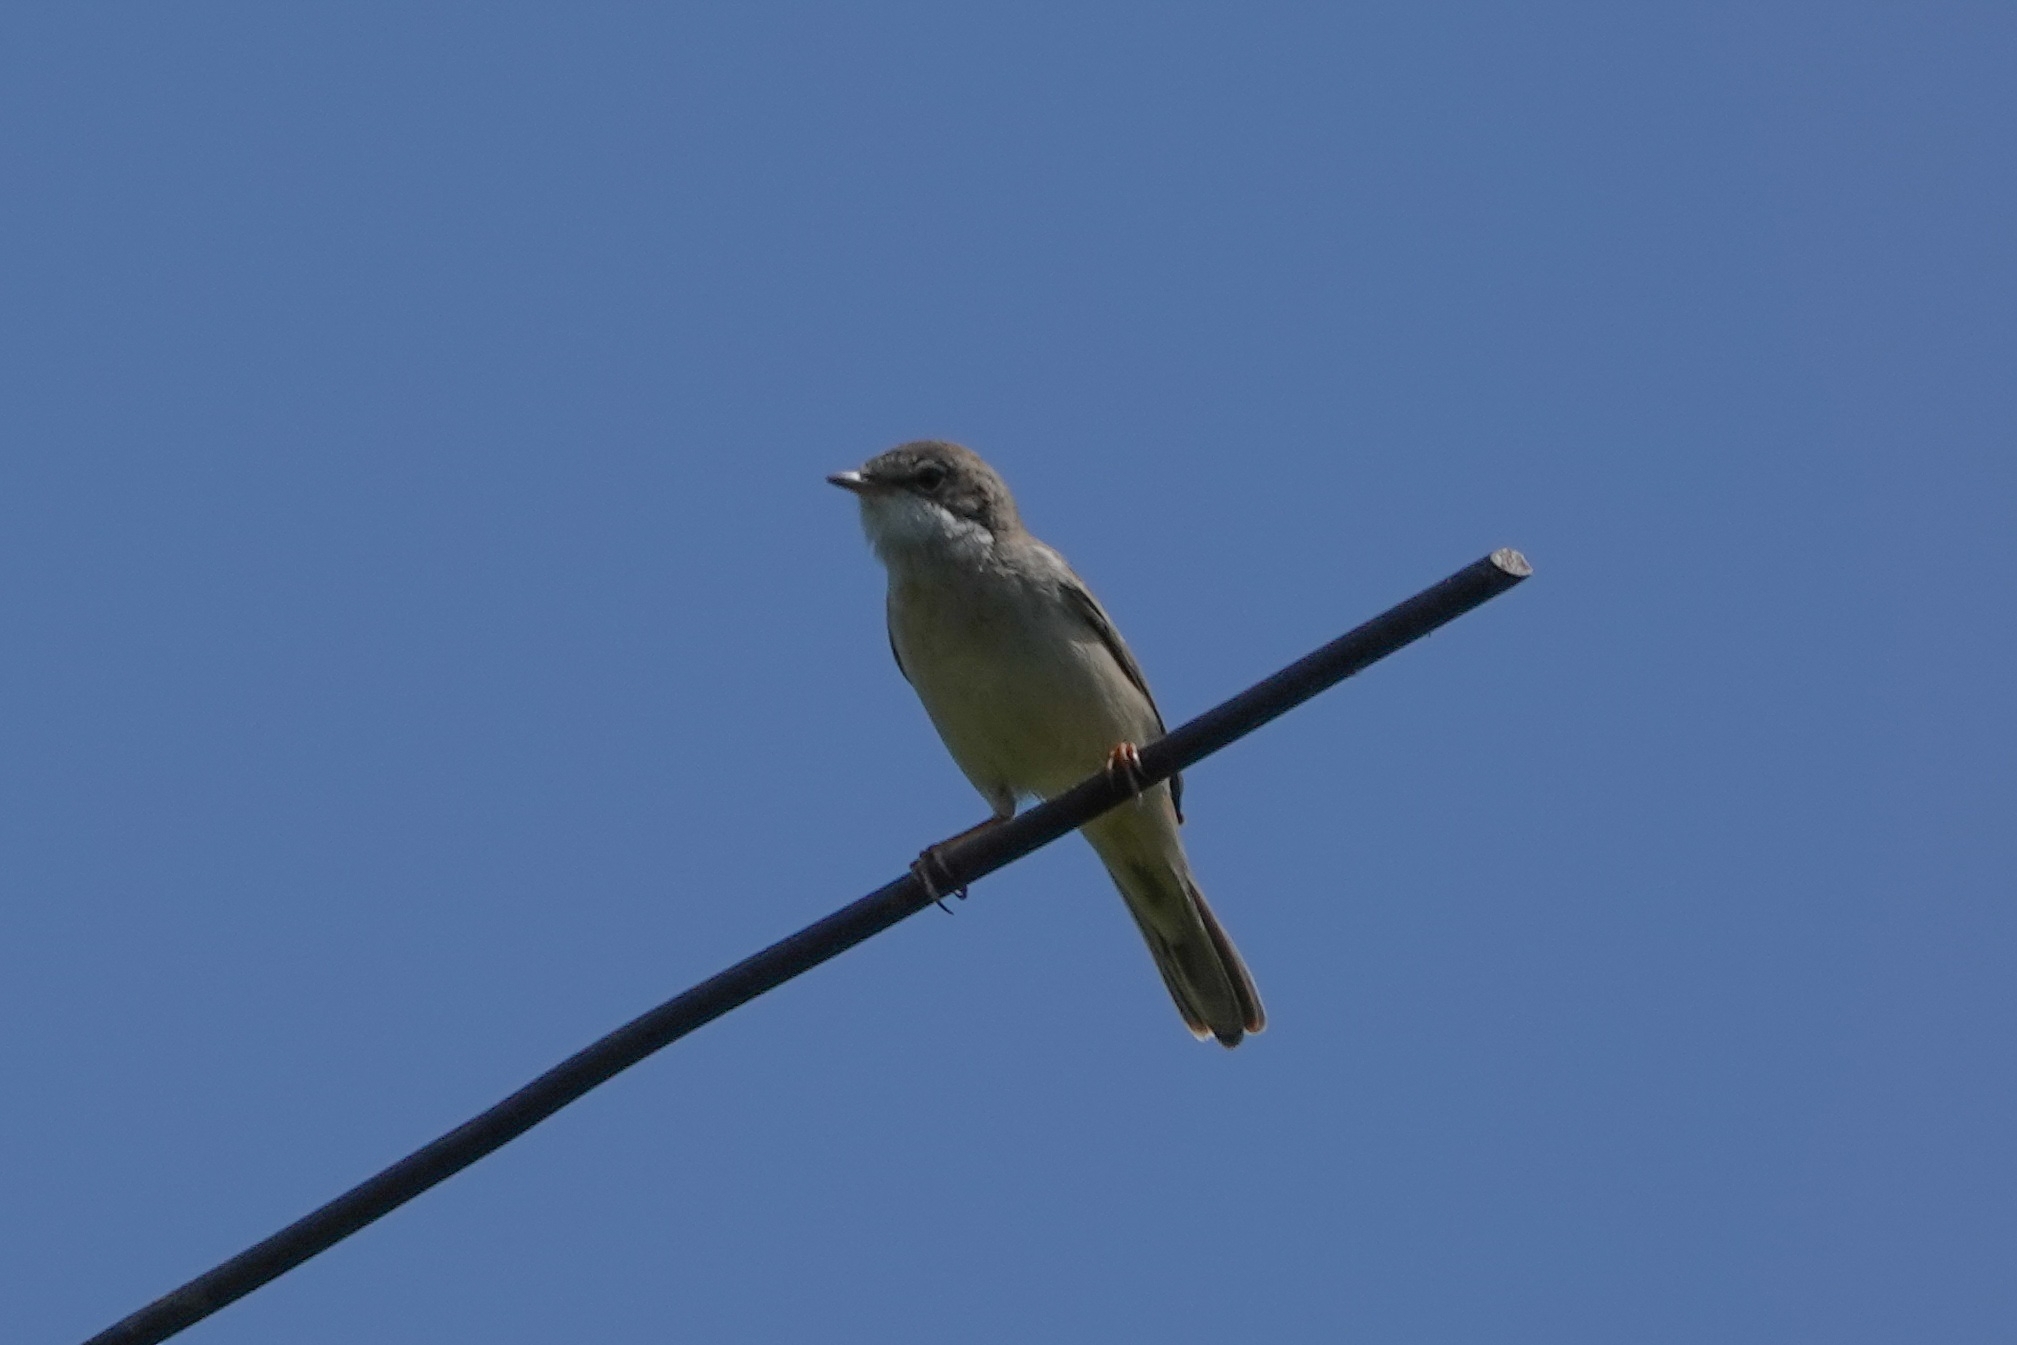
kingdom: Animalia
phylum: Chordata
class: Aves
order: Passeriformes
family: Sylviidae
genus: Sylvia
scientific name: Sylvia communis
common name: Common whitethroat
